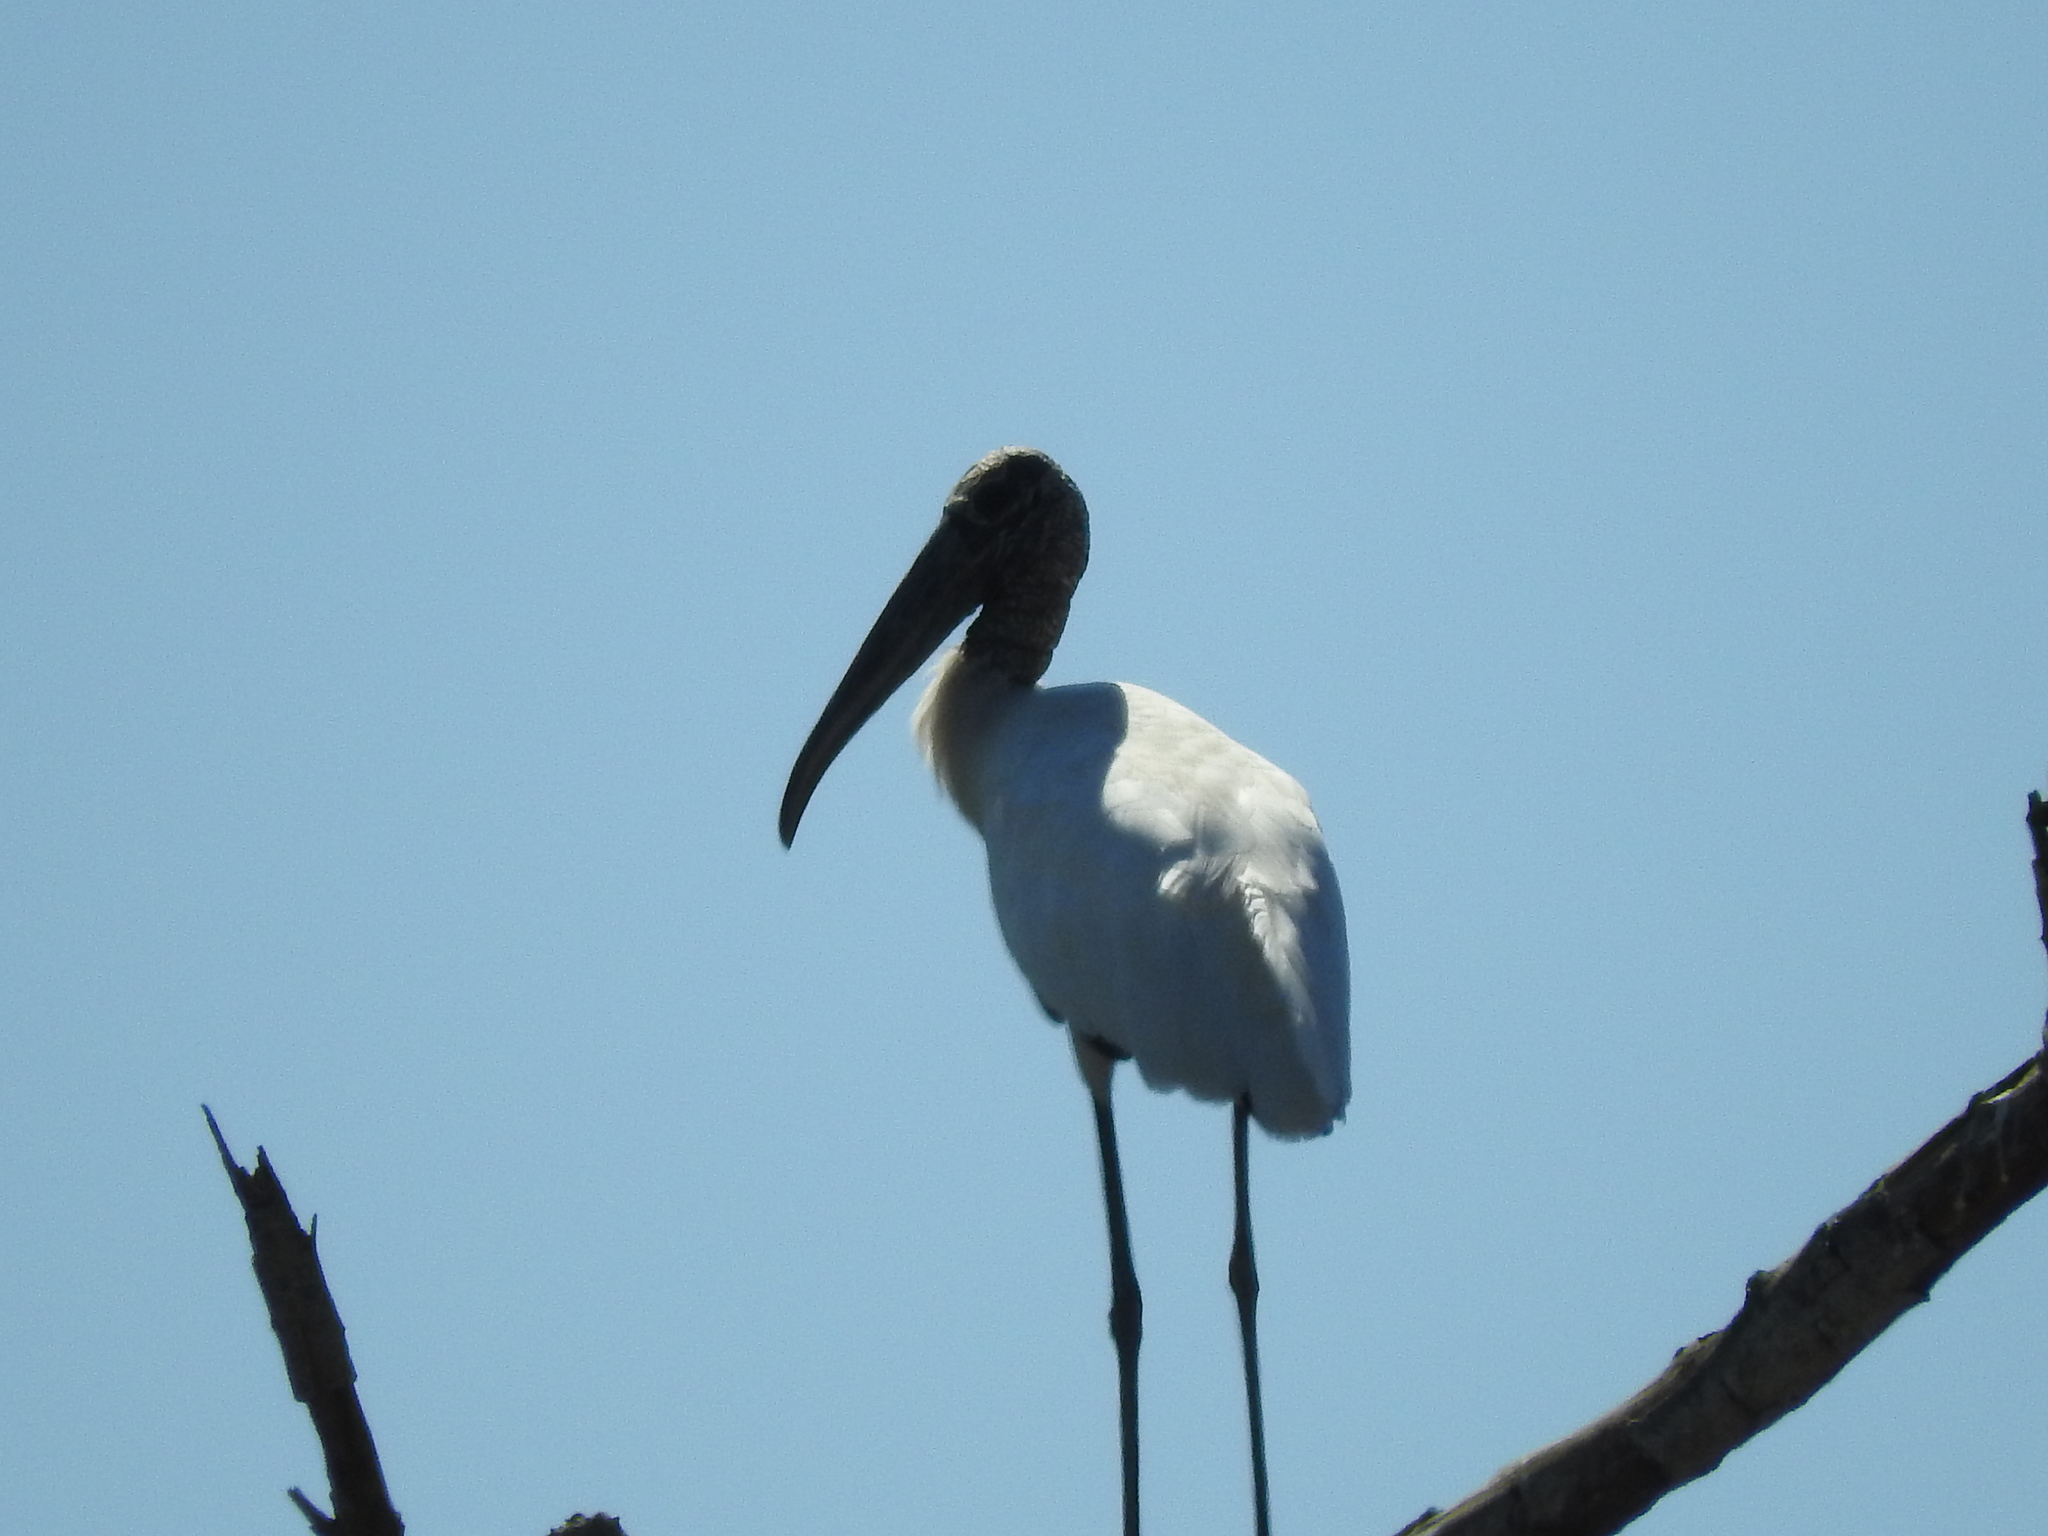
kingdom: Animalia
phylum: Chordata
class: Aves
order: Ciconiiformes
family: Ciconiidae
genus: Mycteria
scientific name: Mycteria americana
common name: Wood stork
